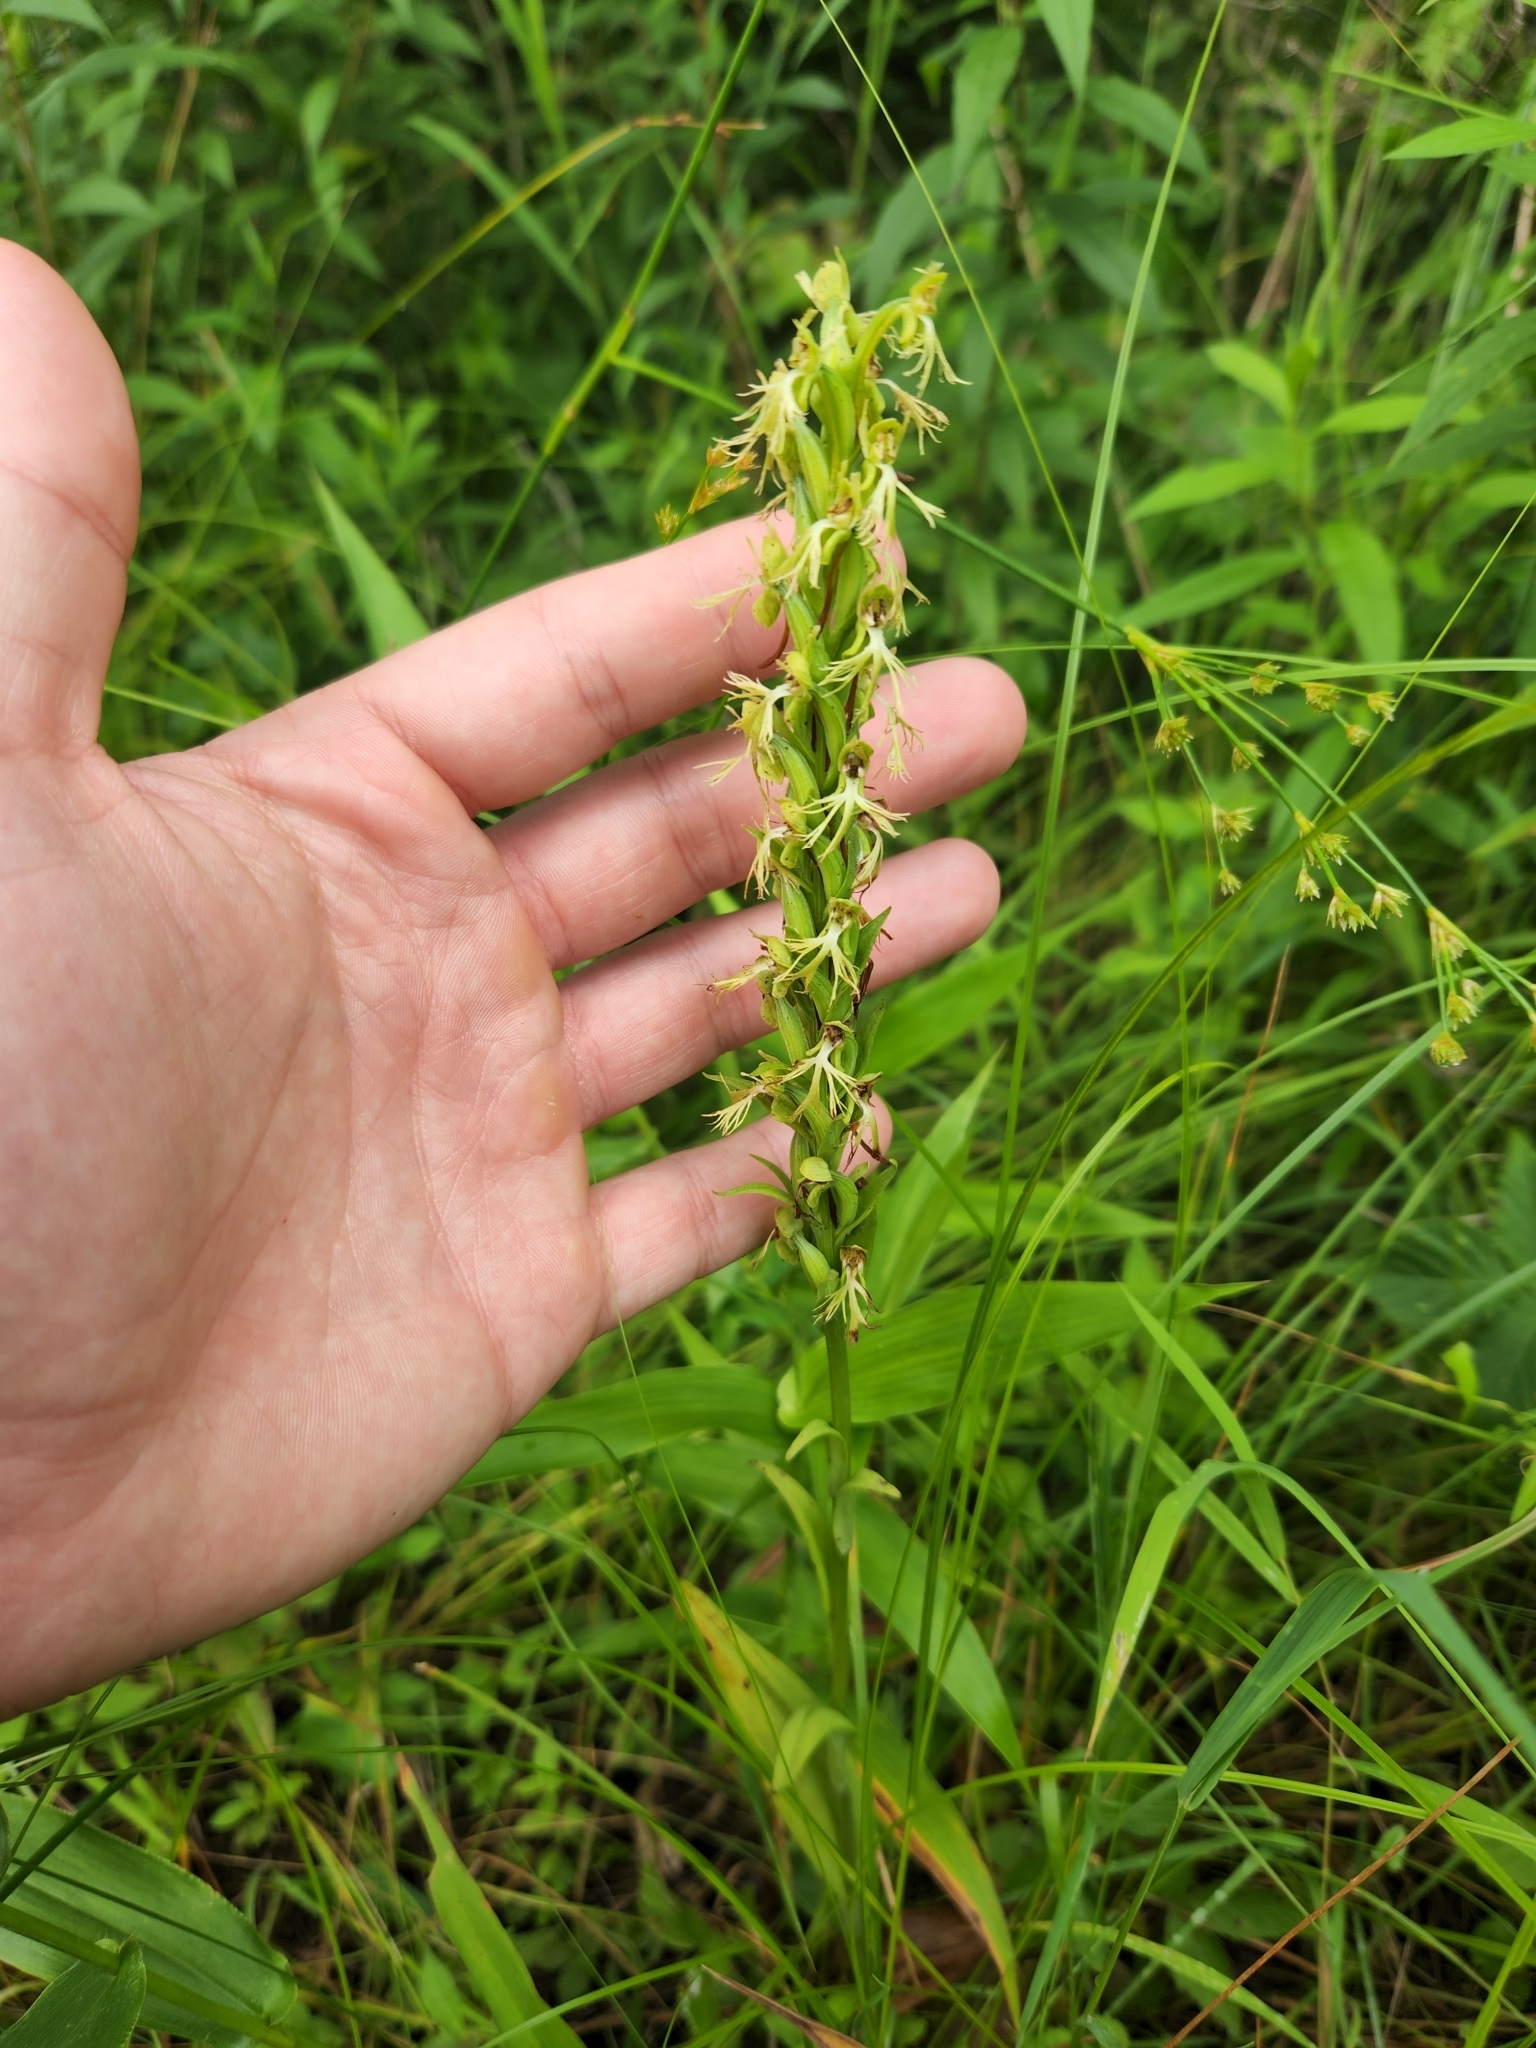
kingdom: Plantae
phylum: Tracheophyta
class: Liliopsida
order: Asparagales
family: Orchidaceae
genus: Platanthera
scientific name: Platanthera lacera
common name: Green fringed orchid
